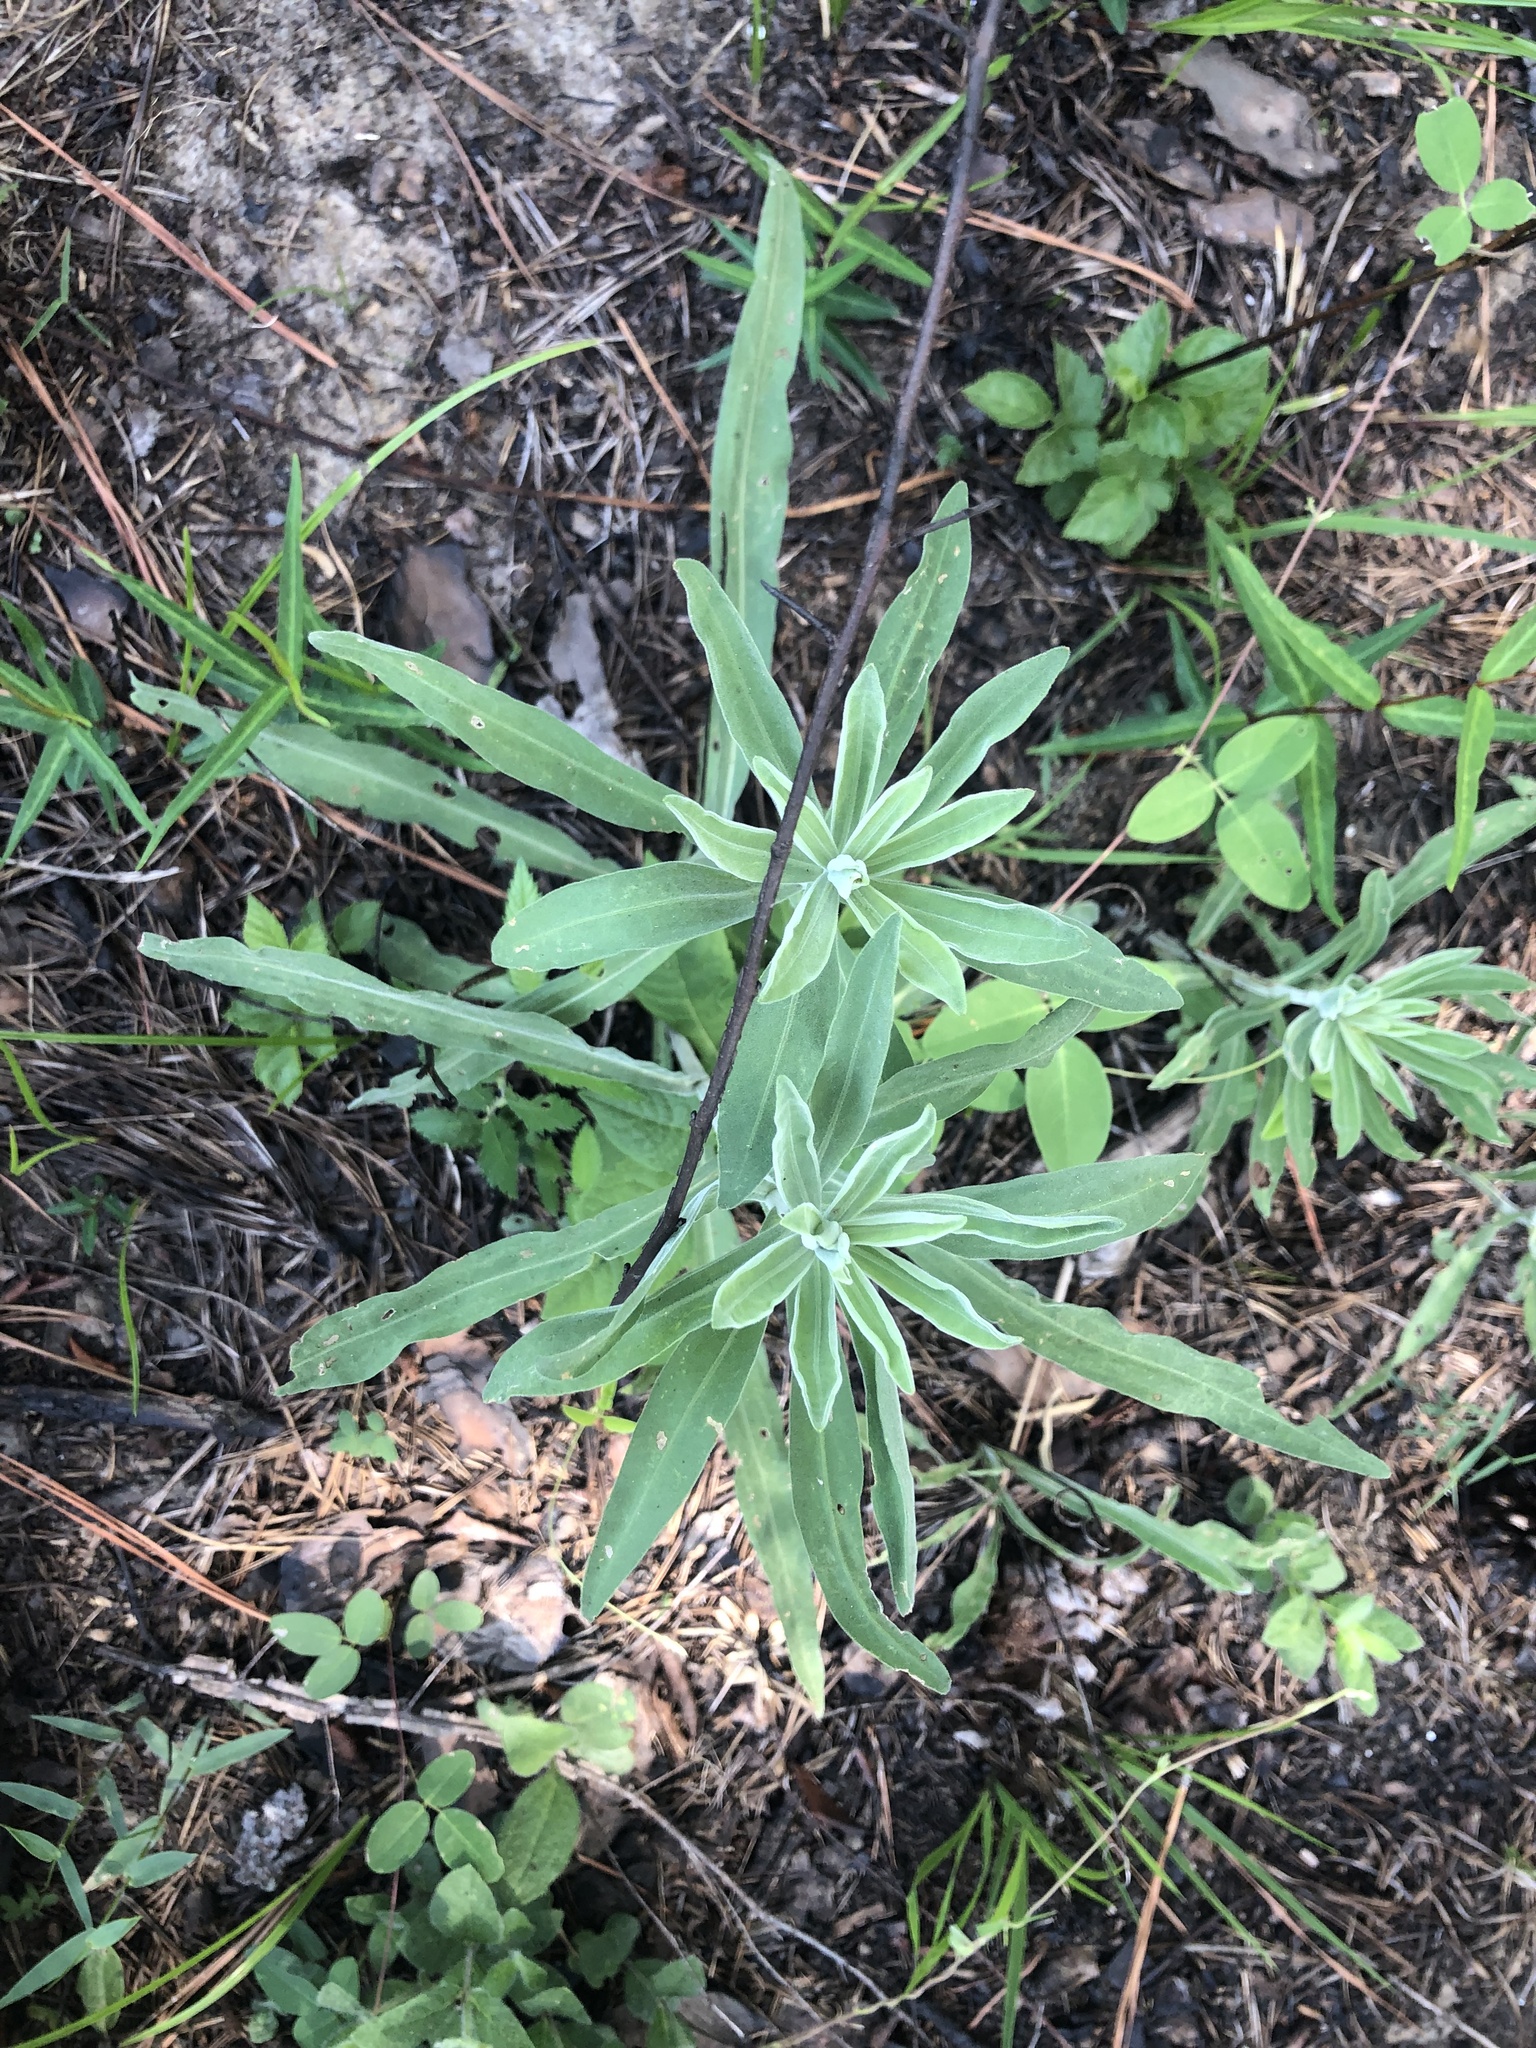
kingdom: Plantae
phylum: Tracheophyta
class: Magnoliopsida
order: Asterales
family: Asteraceae
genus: Liatris
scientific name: Liatris squarrulosa
